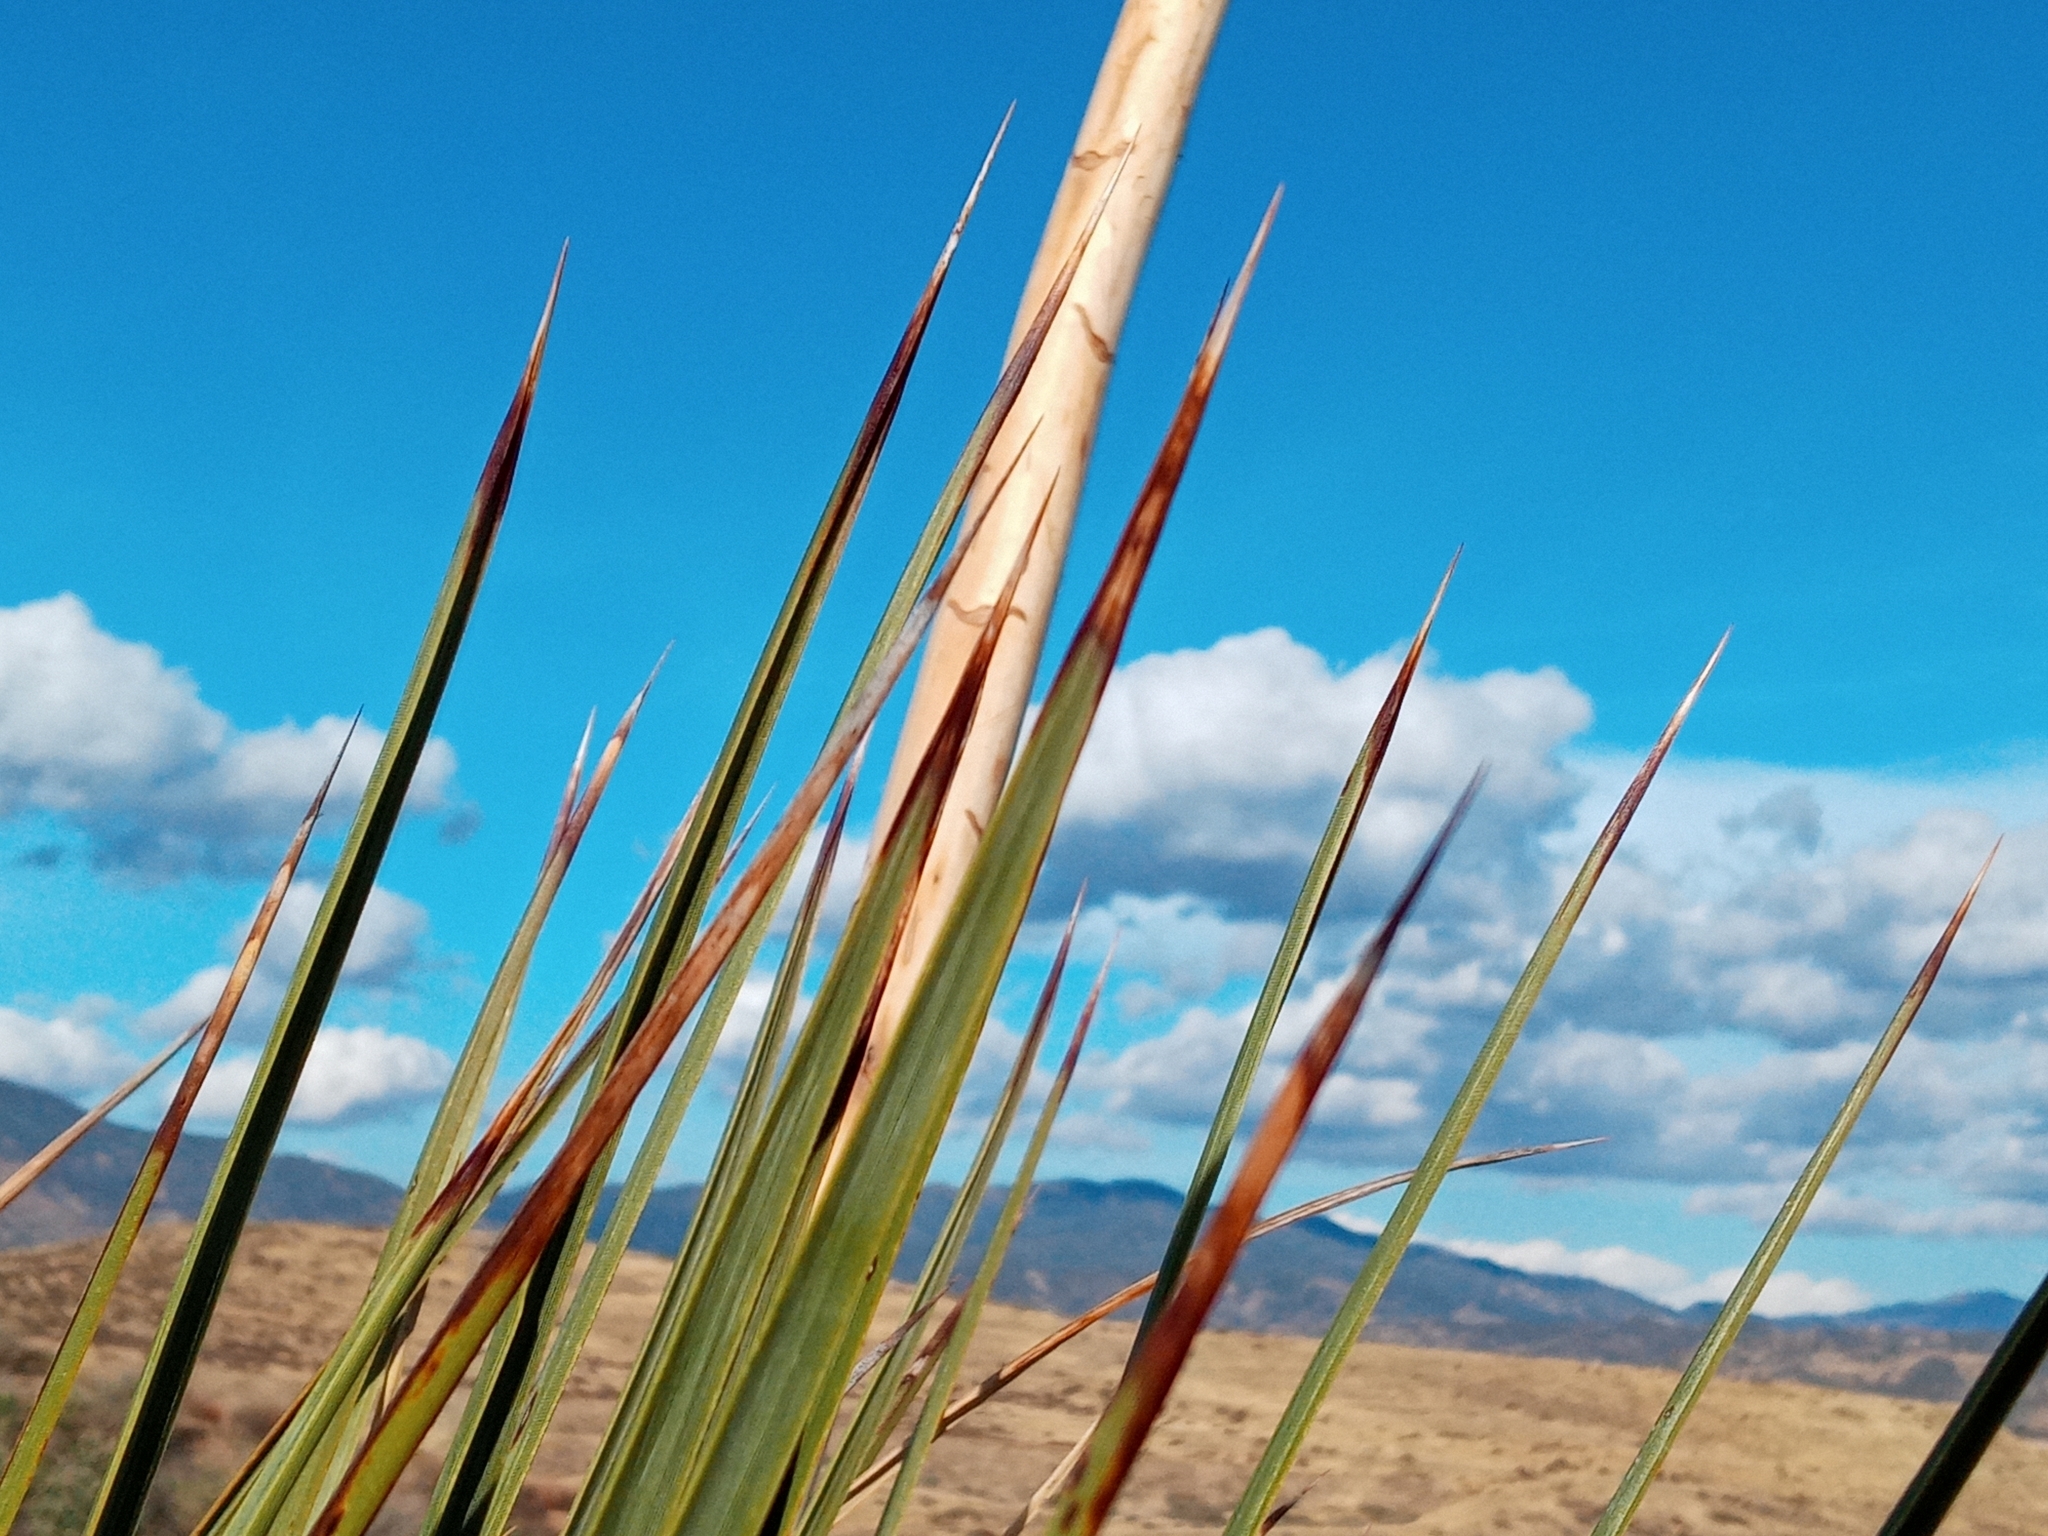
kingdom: Plantae
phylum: Tracheophyta
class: Liliopsida
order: Asparagales
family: Asparagaceae
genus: Hesperoyucca
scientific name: Hesperoyucca whipplei
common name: Our lord's-candle
